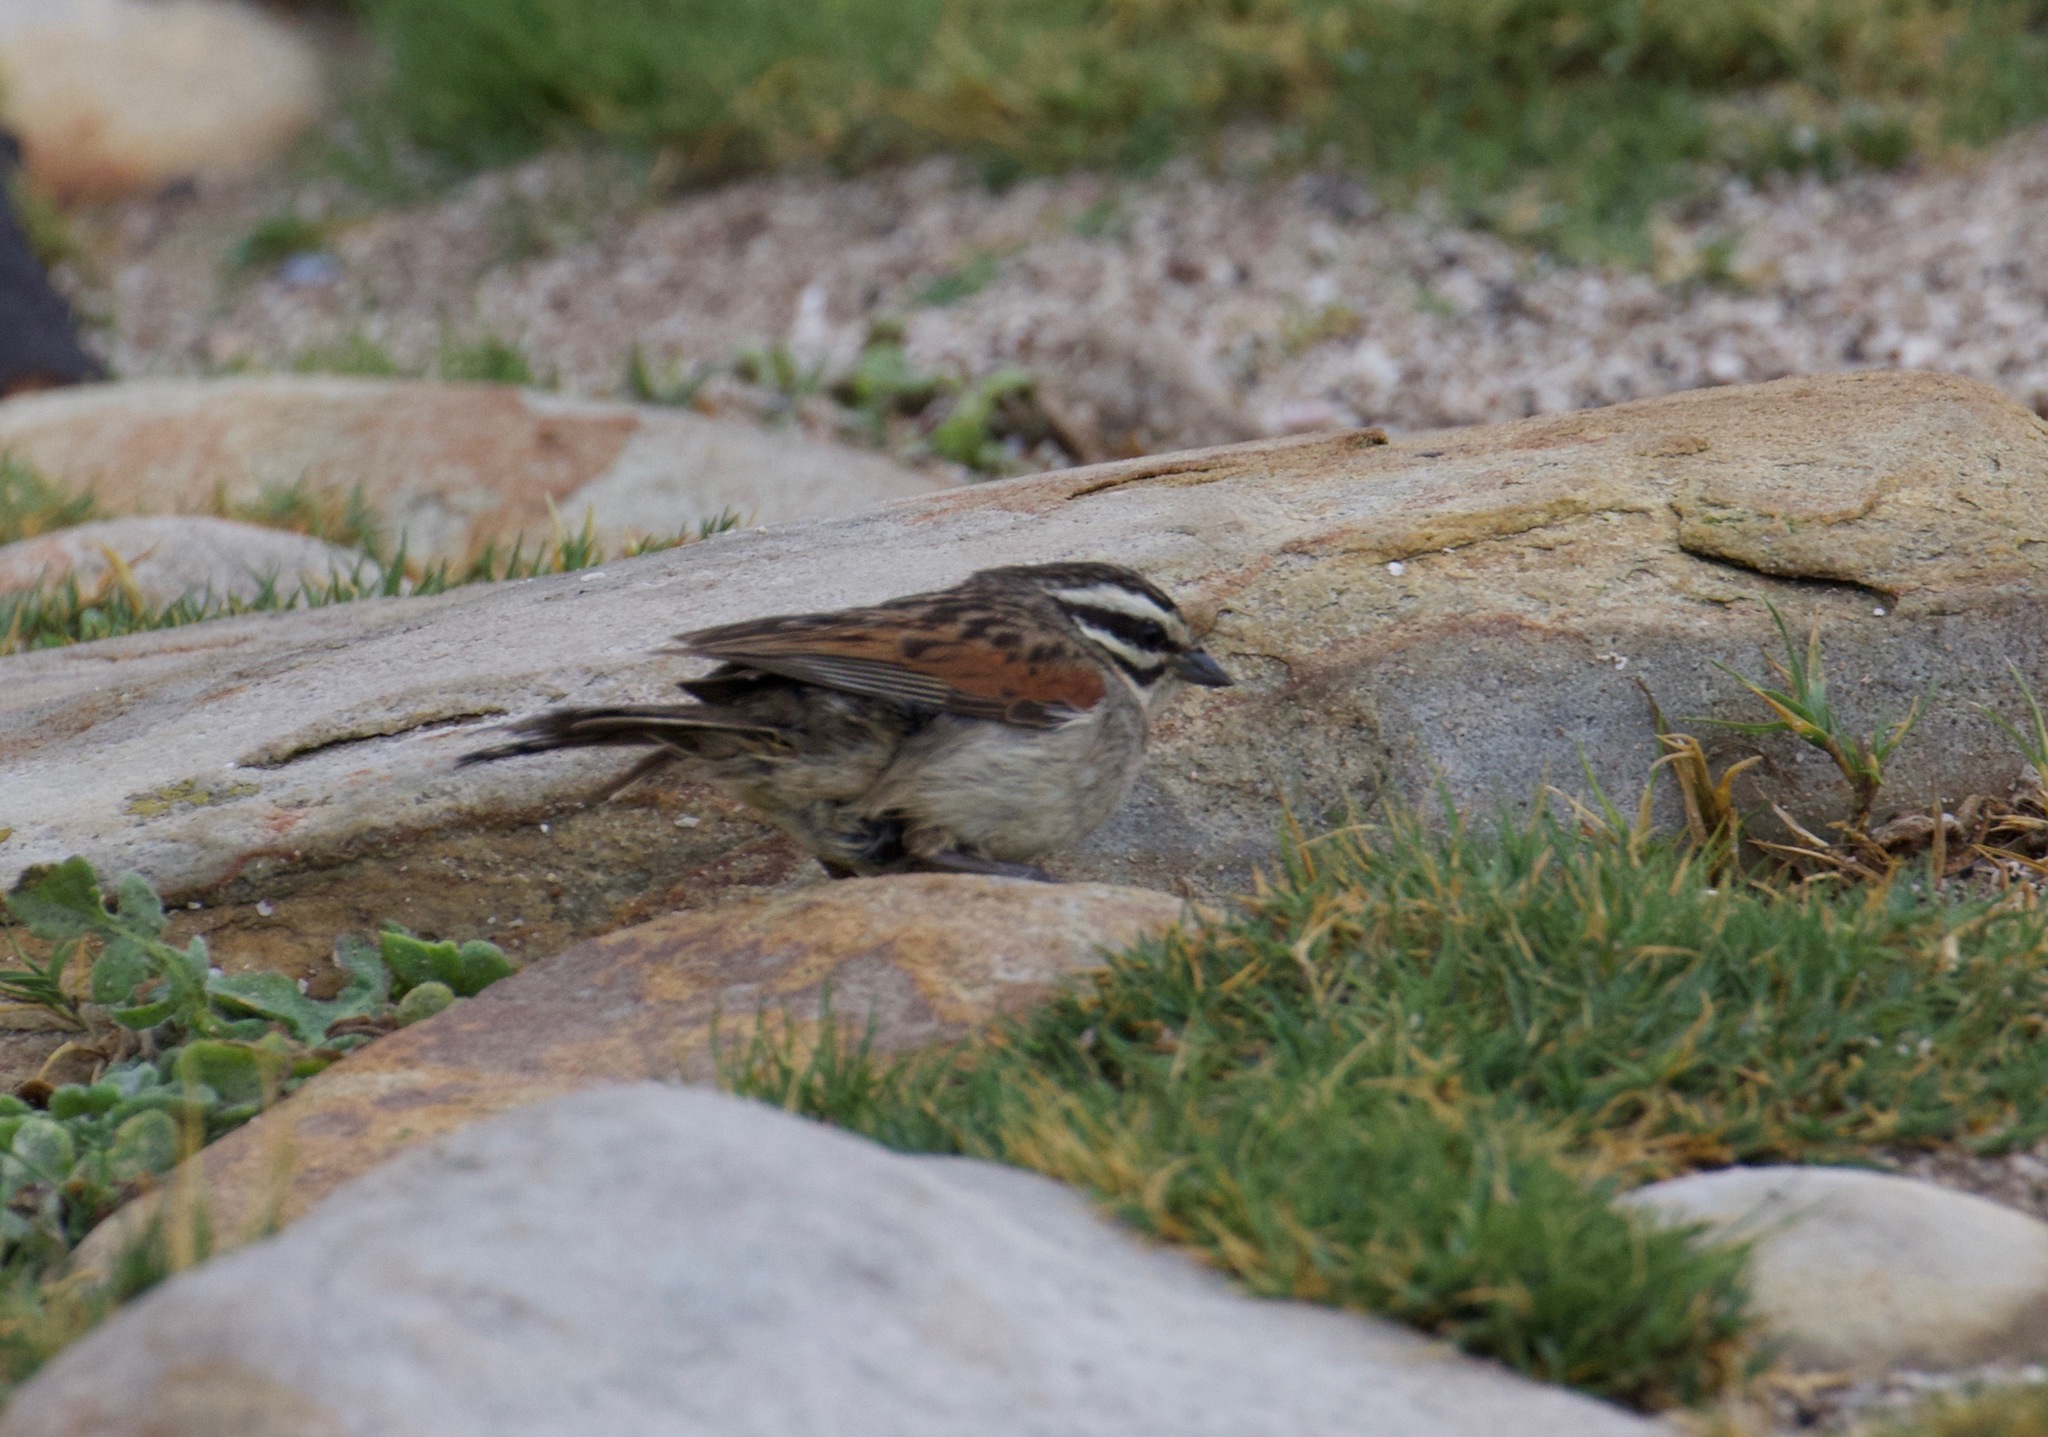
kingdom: Animalia
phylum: Chordata
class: Aves
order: Passeriformes
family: Emberizidae
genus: Emberiza
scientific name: Emberiza capensis
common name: Cape bunting
